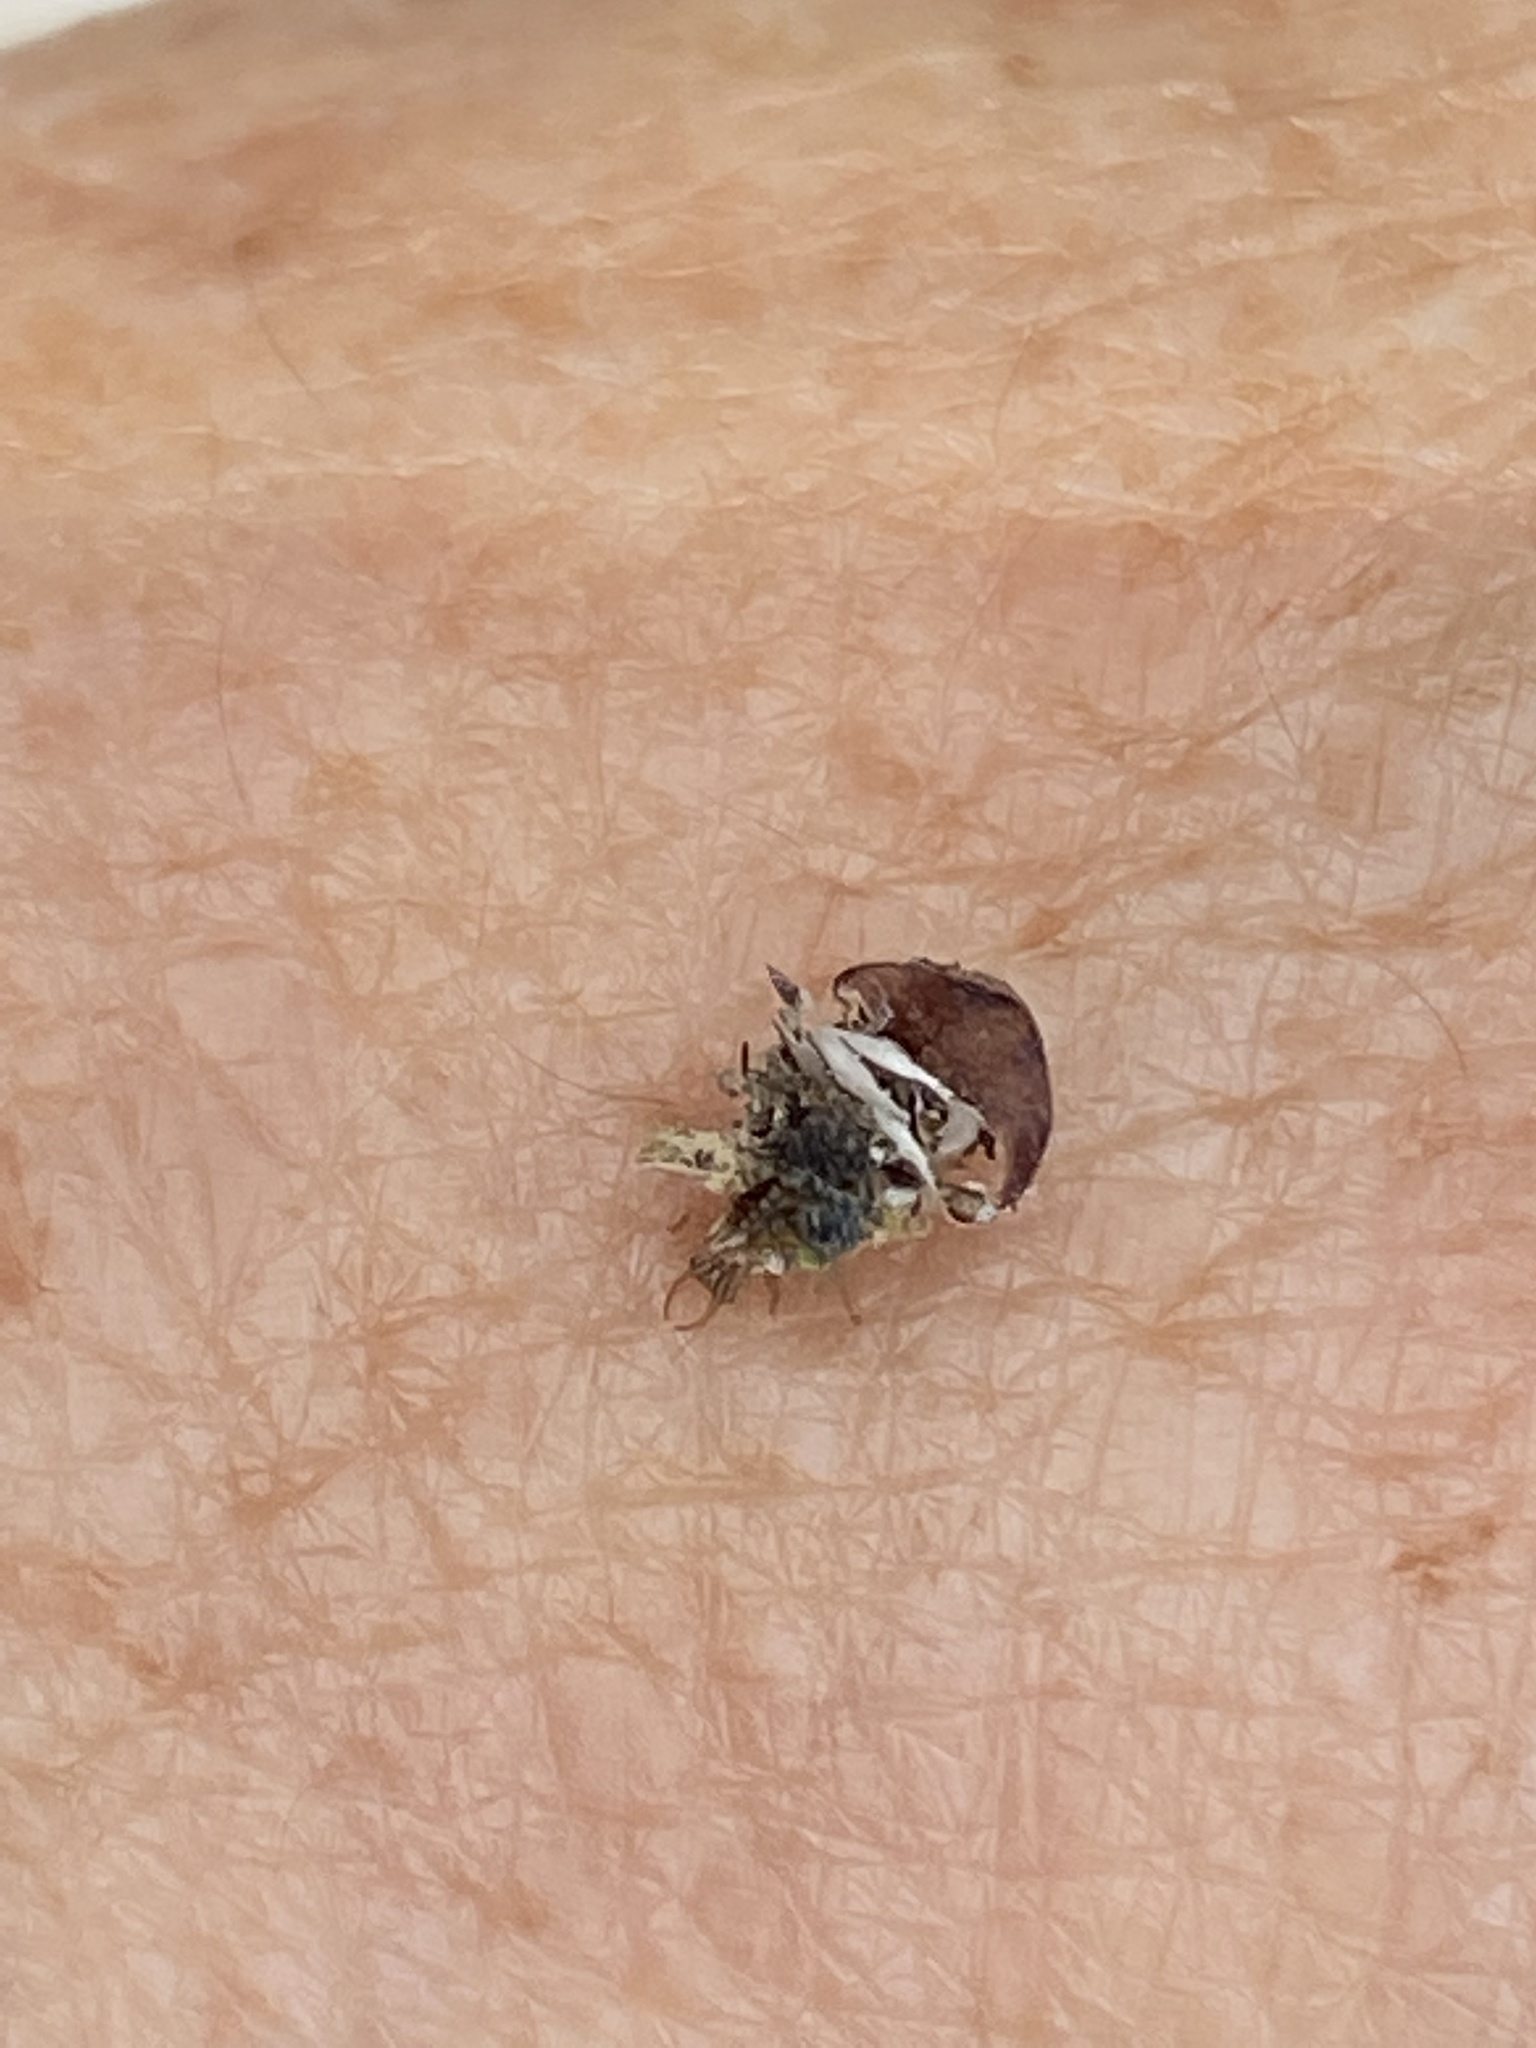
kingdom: Animalia
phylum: Arthropoda
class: Insecta
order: Neuroptera
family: Chrysopidae
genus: Mallada
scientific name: Mallada basalis
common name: Green lacewing
